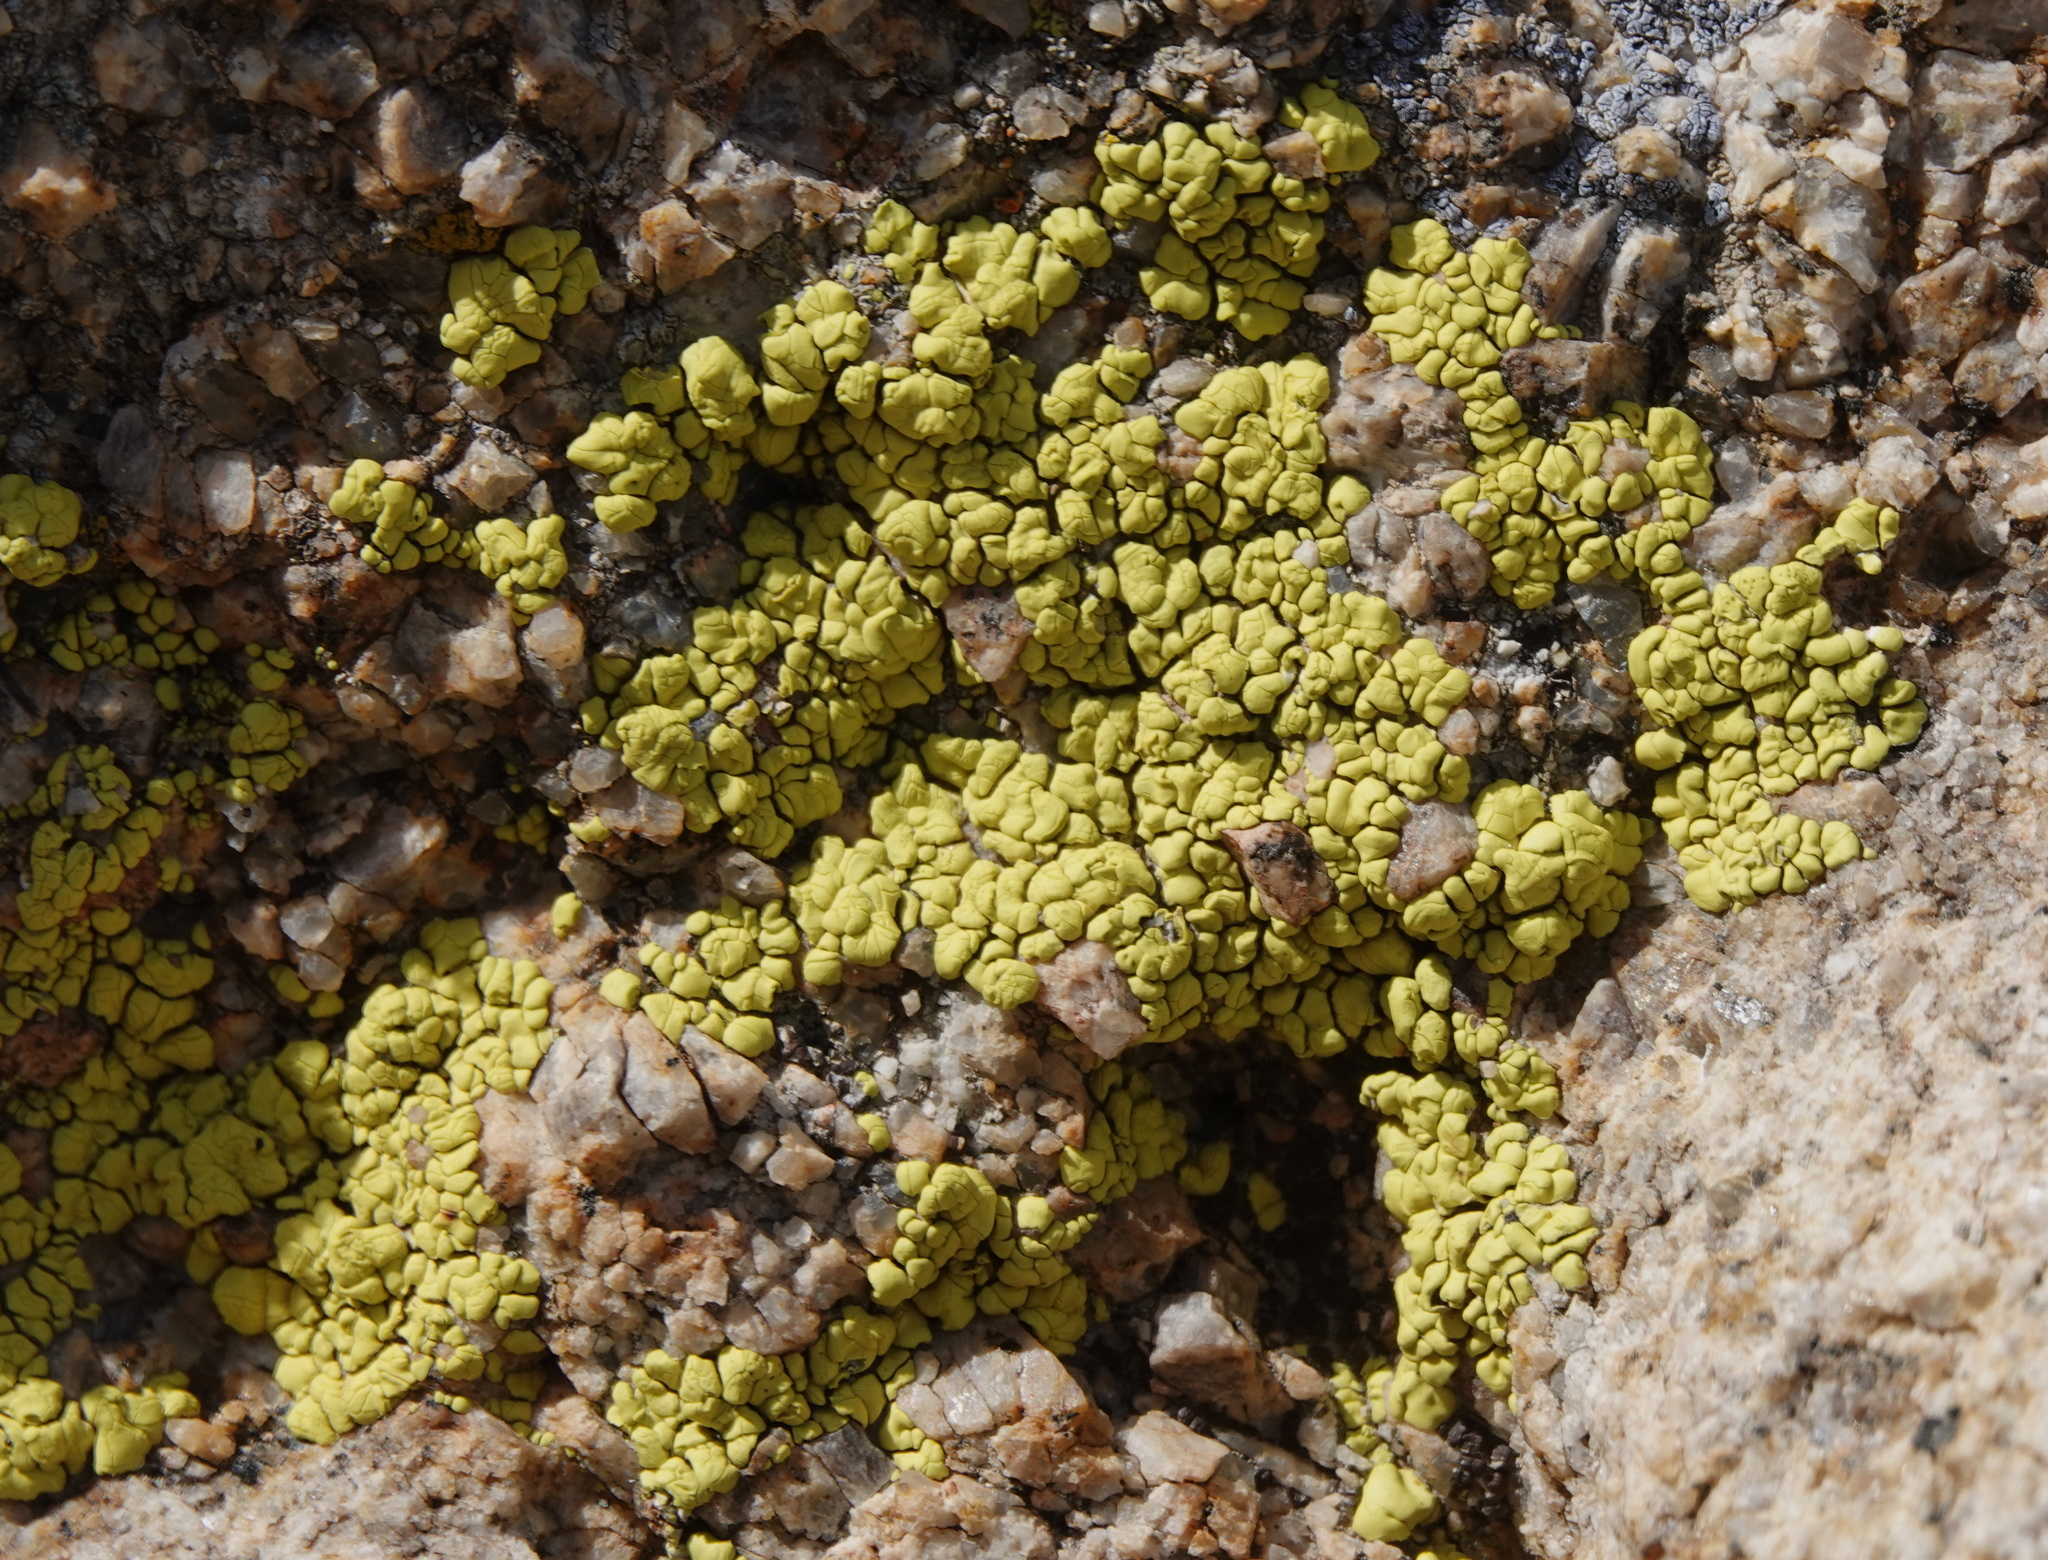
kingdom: Fungi
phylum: Ascomycota
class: Lecanoromycetes
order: Acarosporales
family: Acarosporaceae
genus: Acarospora
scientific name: Acarospora socialis
